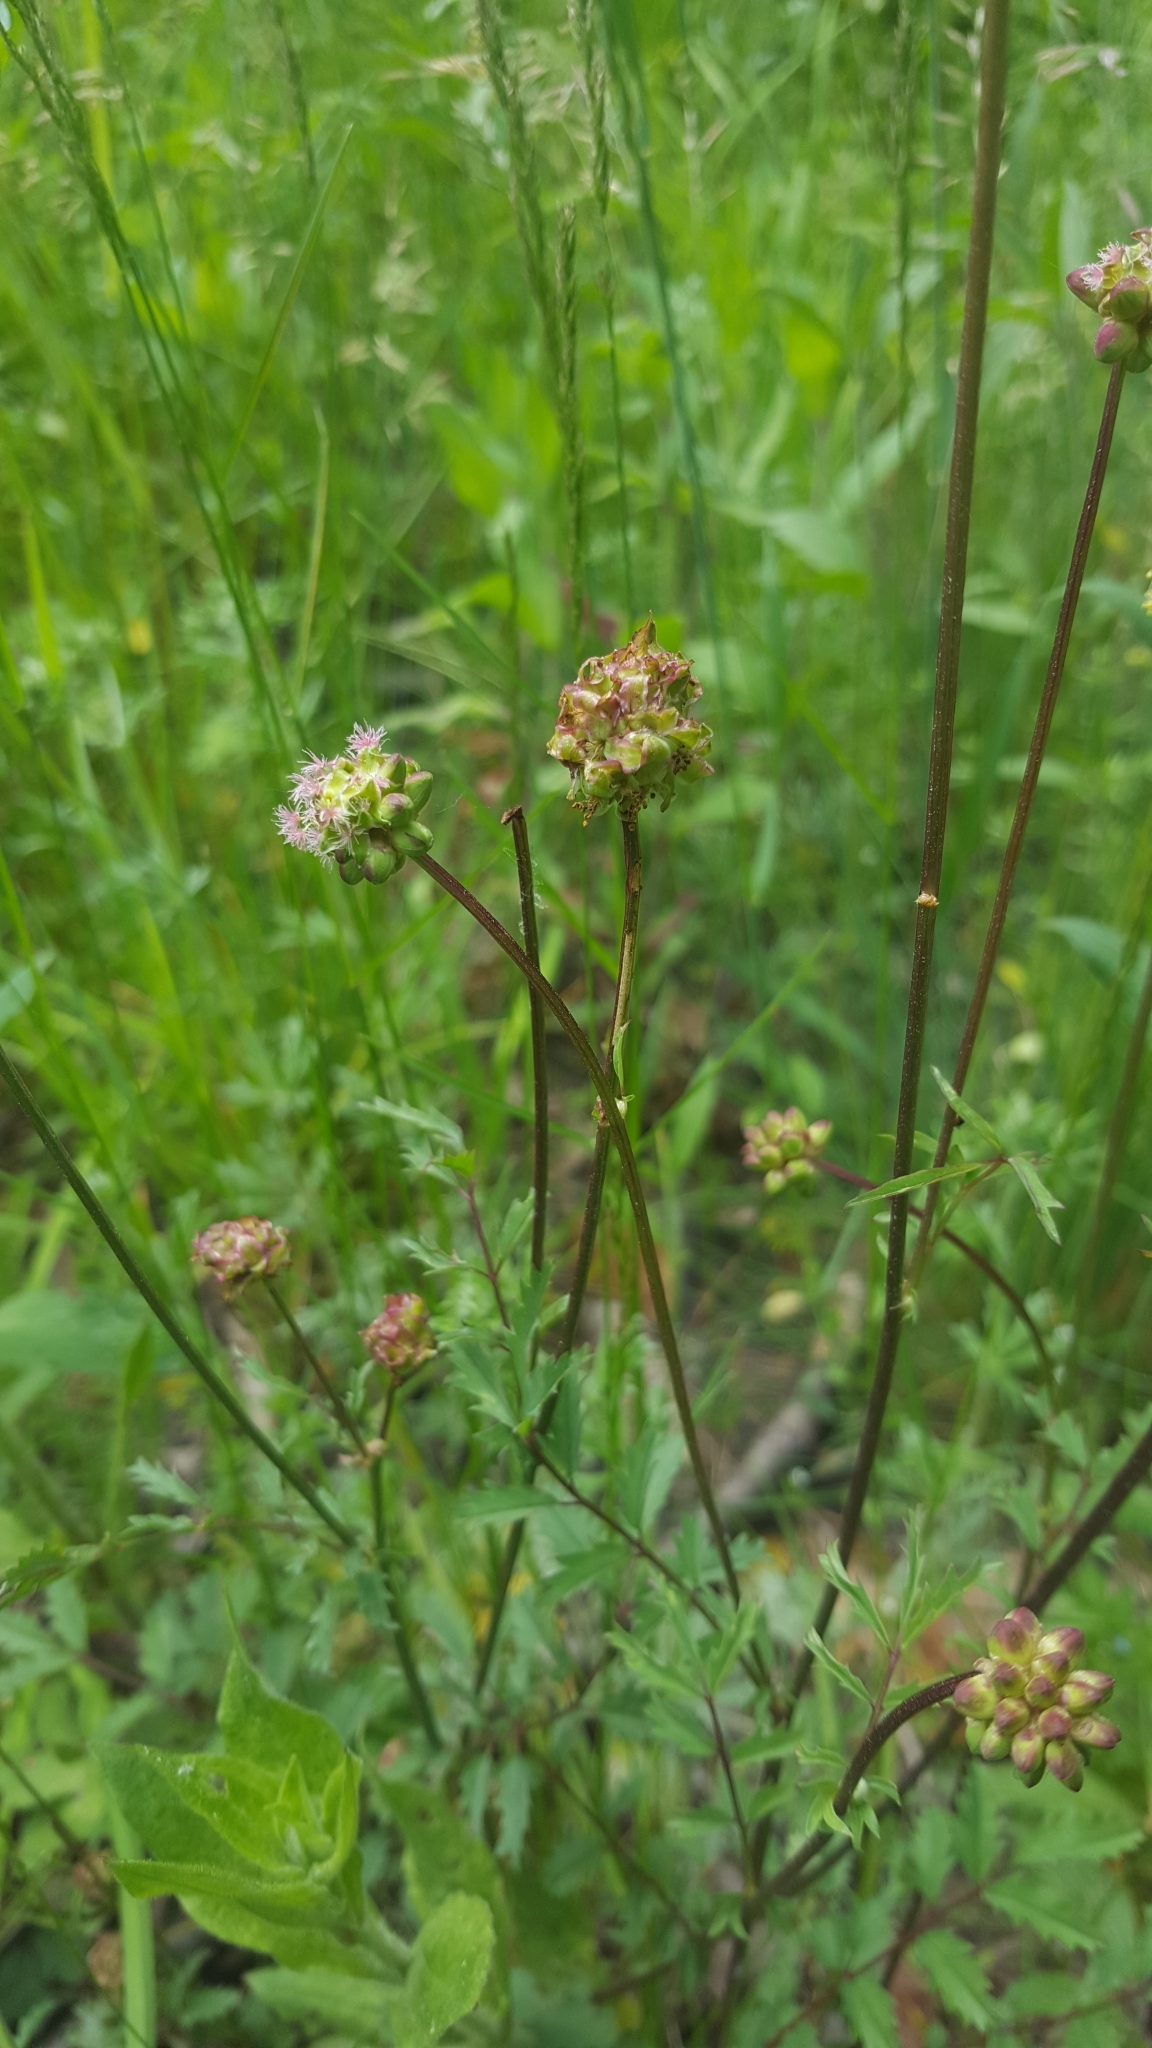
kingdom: Plantae
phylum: Tracheophyta
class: Magnoliopsida
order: Rosales
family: Rosaceae
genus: Poterium
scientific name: Poterium sanguisorba
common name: Salad burnet
